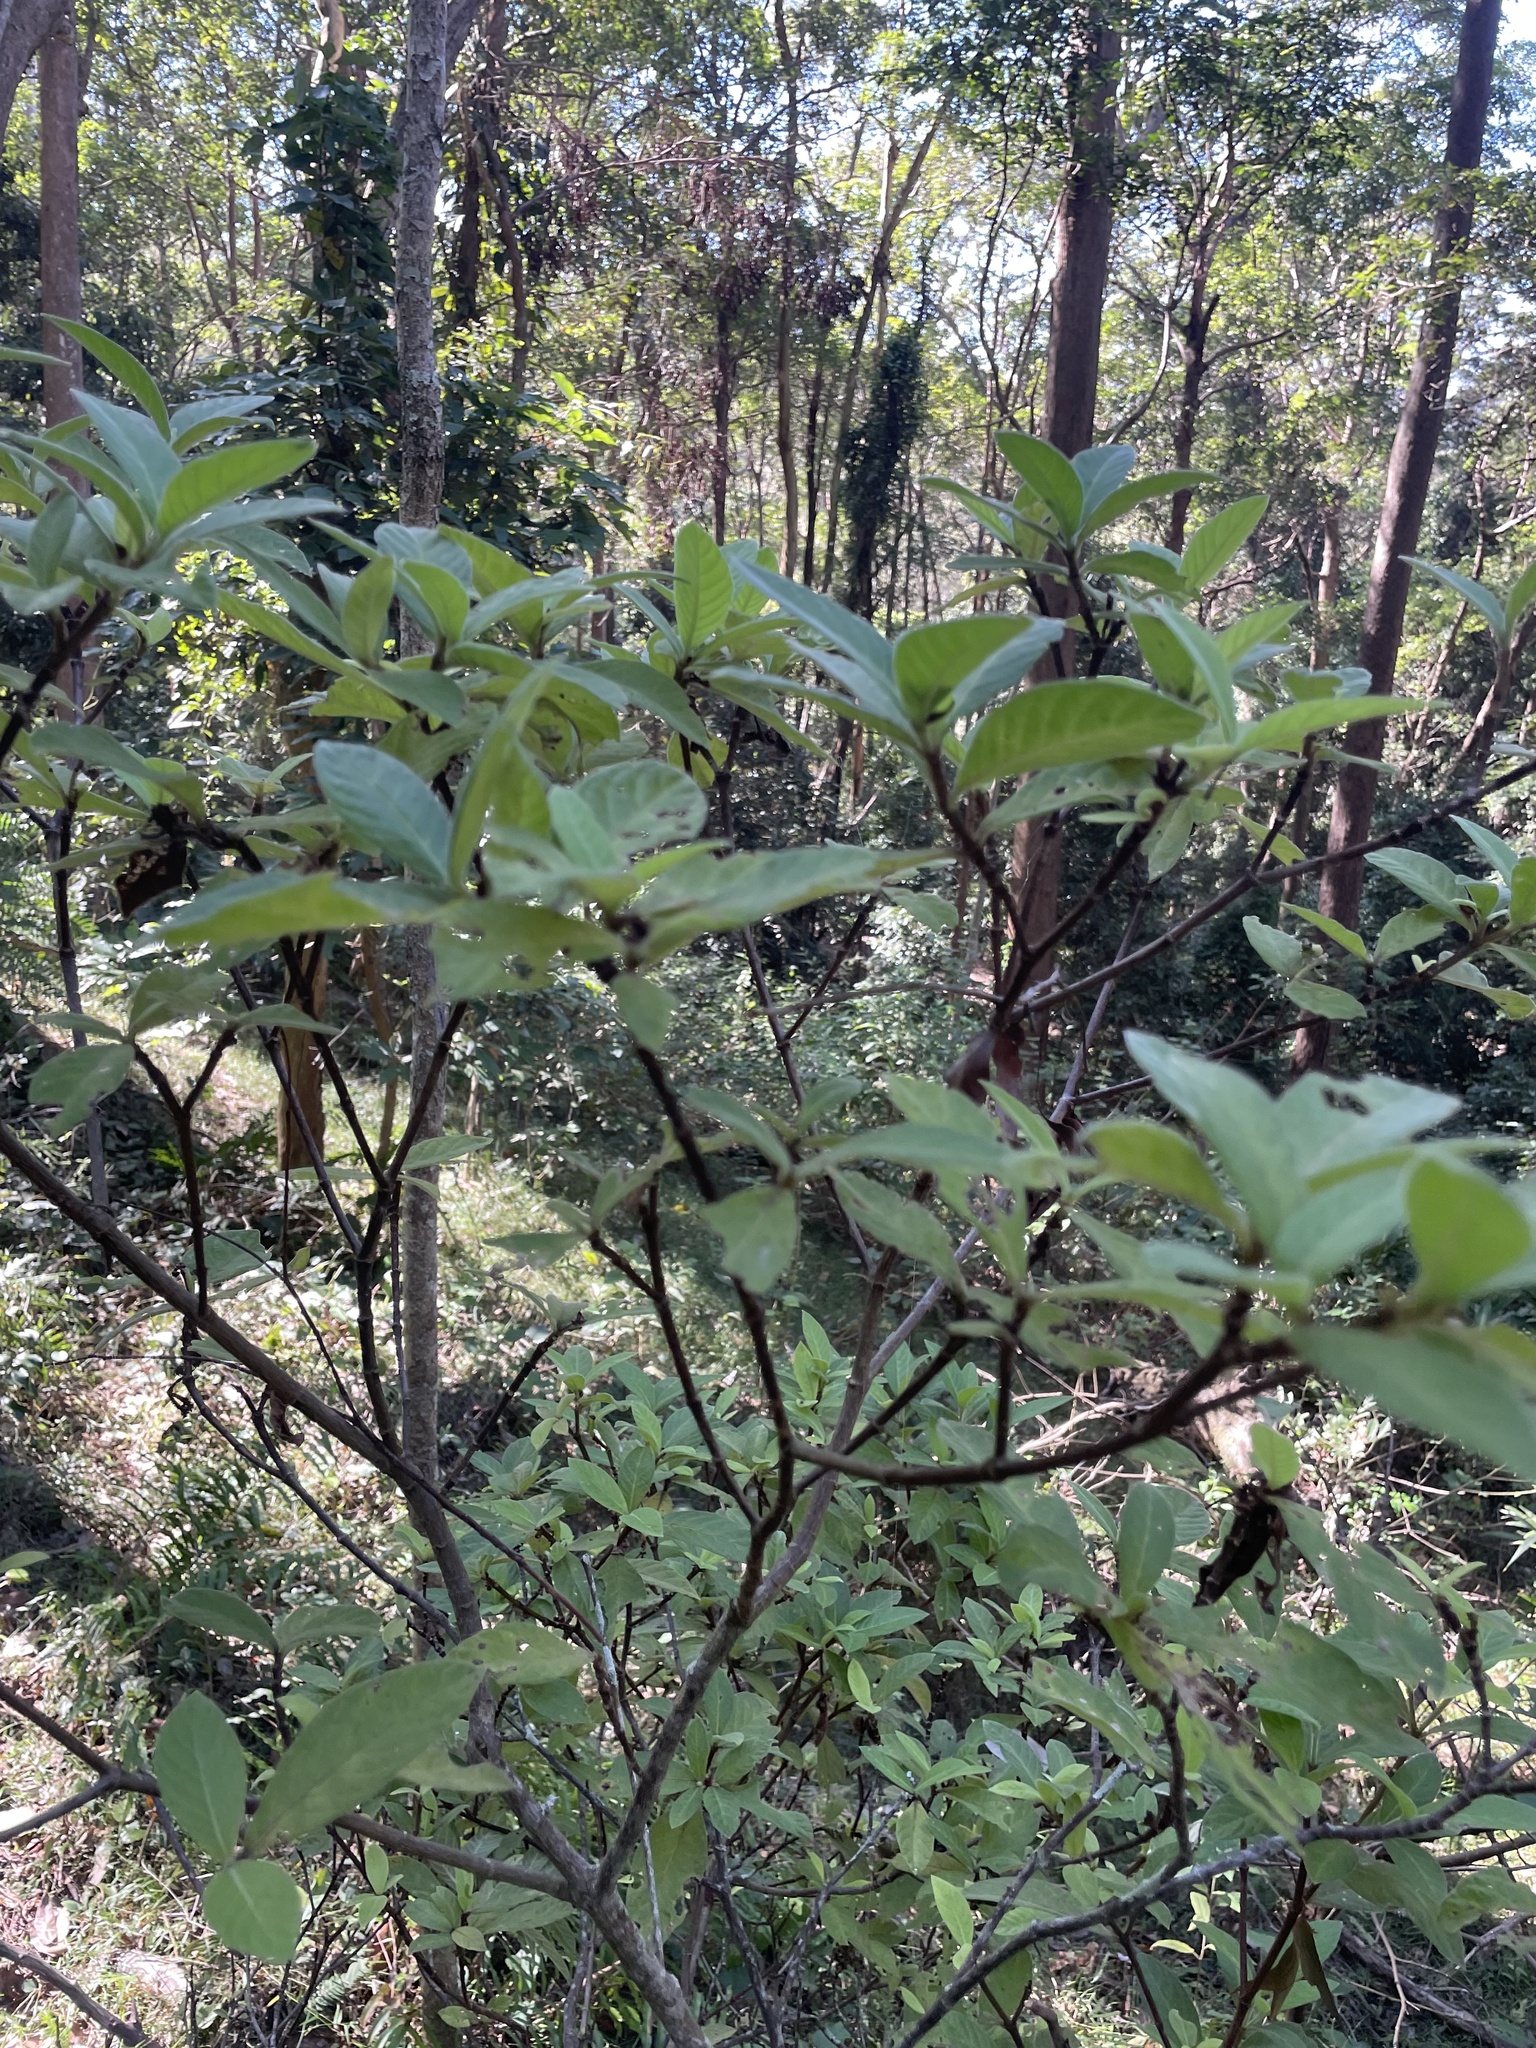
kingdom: Plantae
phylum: Tracheophyta
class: Magnoliopsida
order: Gentianales
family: Rubiaceae
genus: Psychotria
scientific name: Psychotria loniceroides
